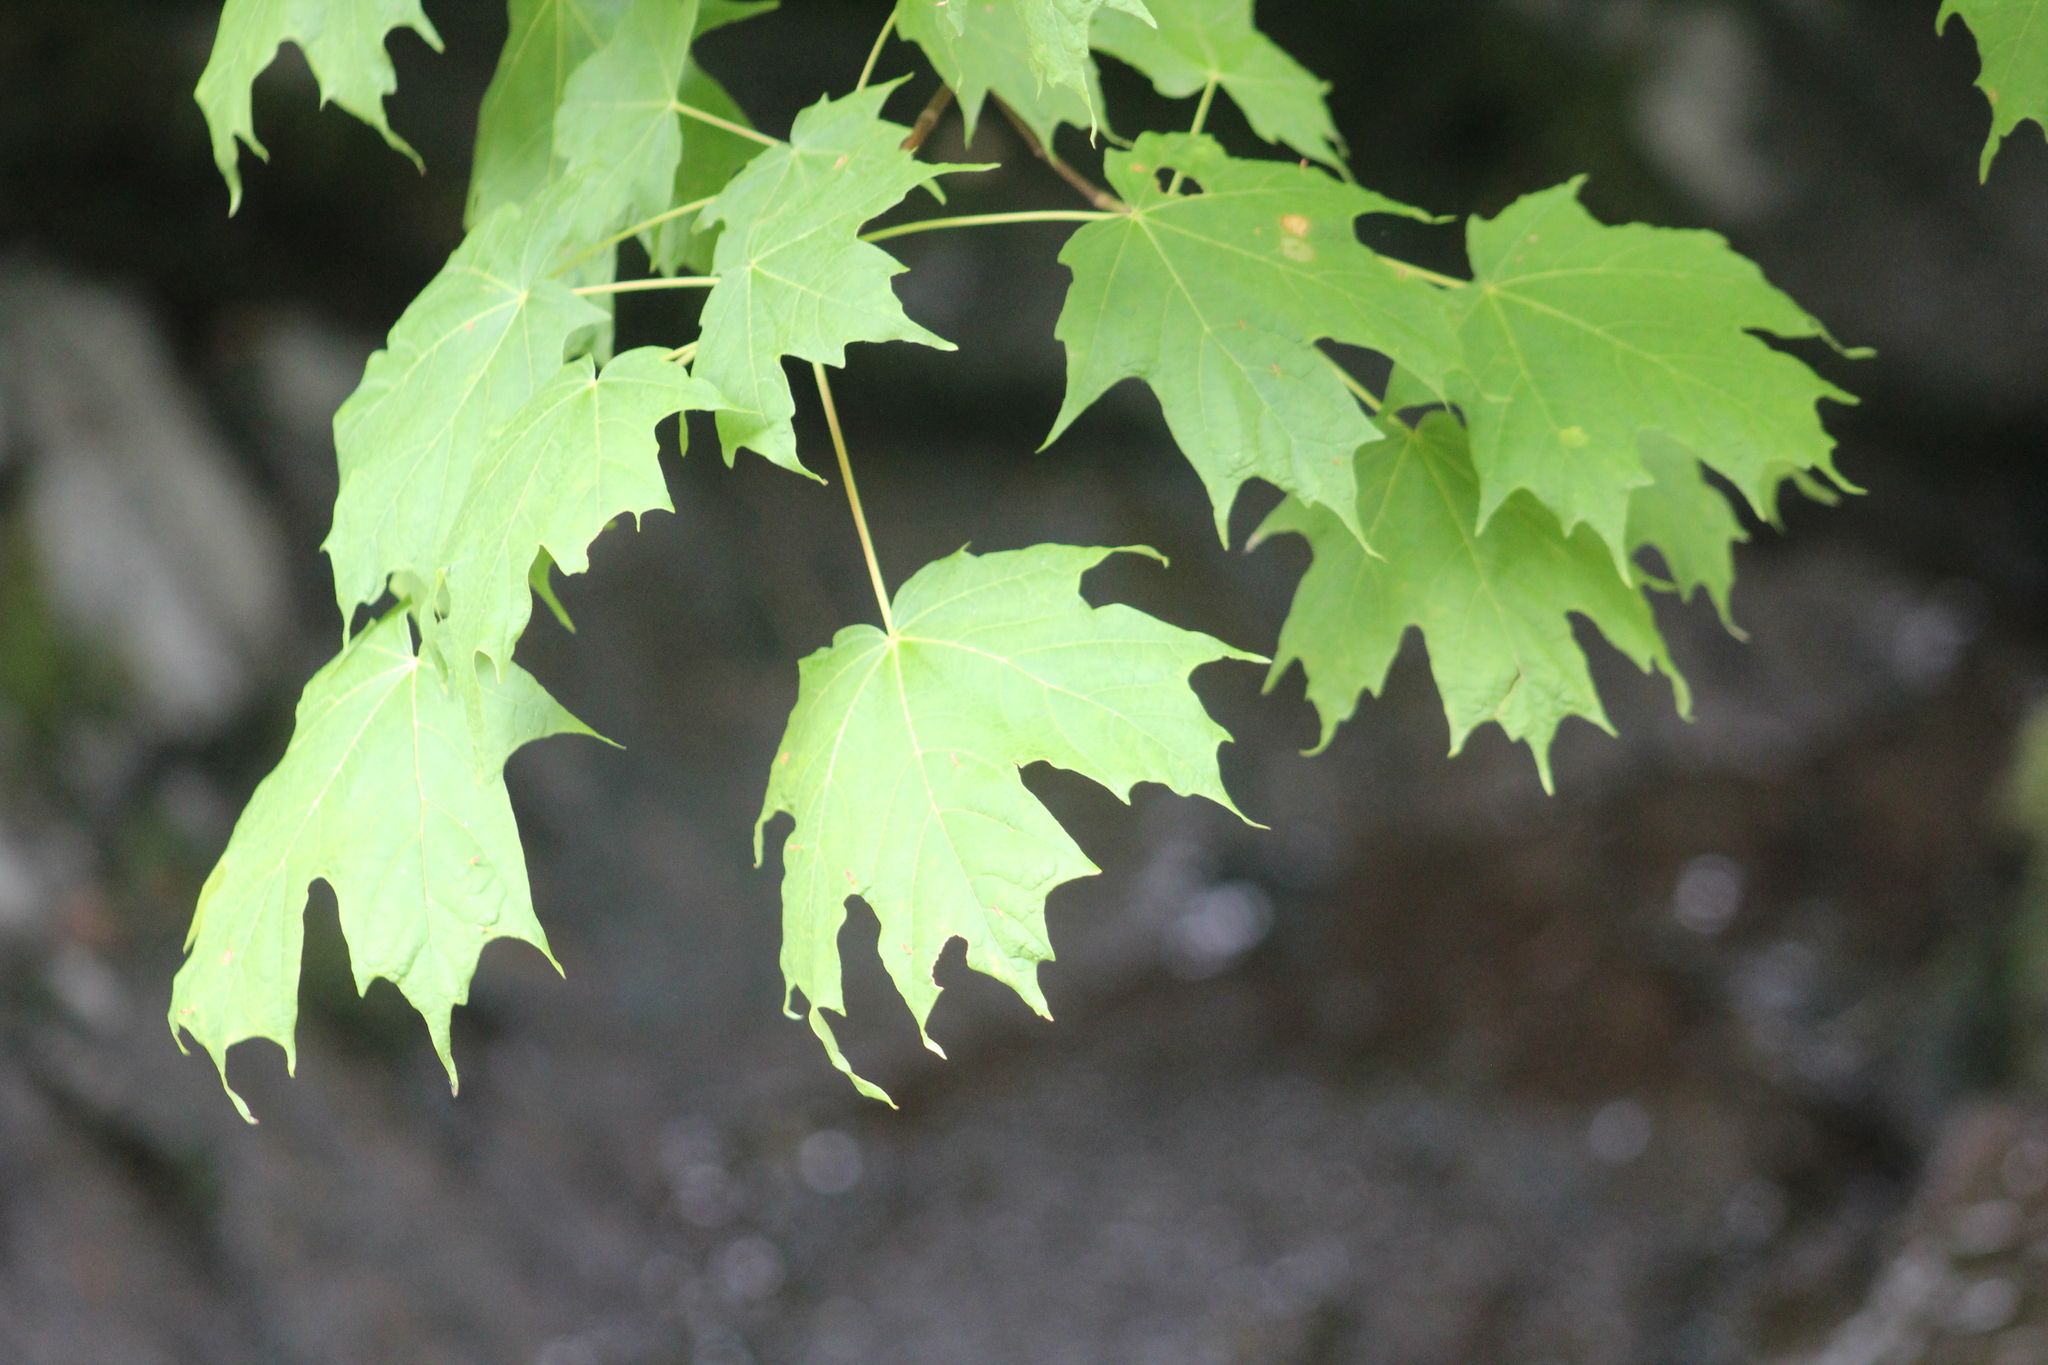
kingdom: Plantae
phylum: Tracheophyta
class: Magnoliopsida
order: Sapindales
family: Sapindaceae
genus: Acer
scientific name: Acer saccharum
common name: Sugar maple
